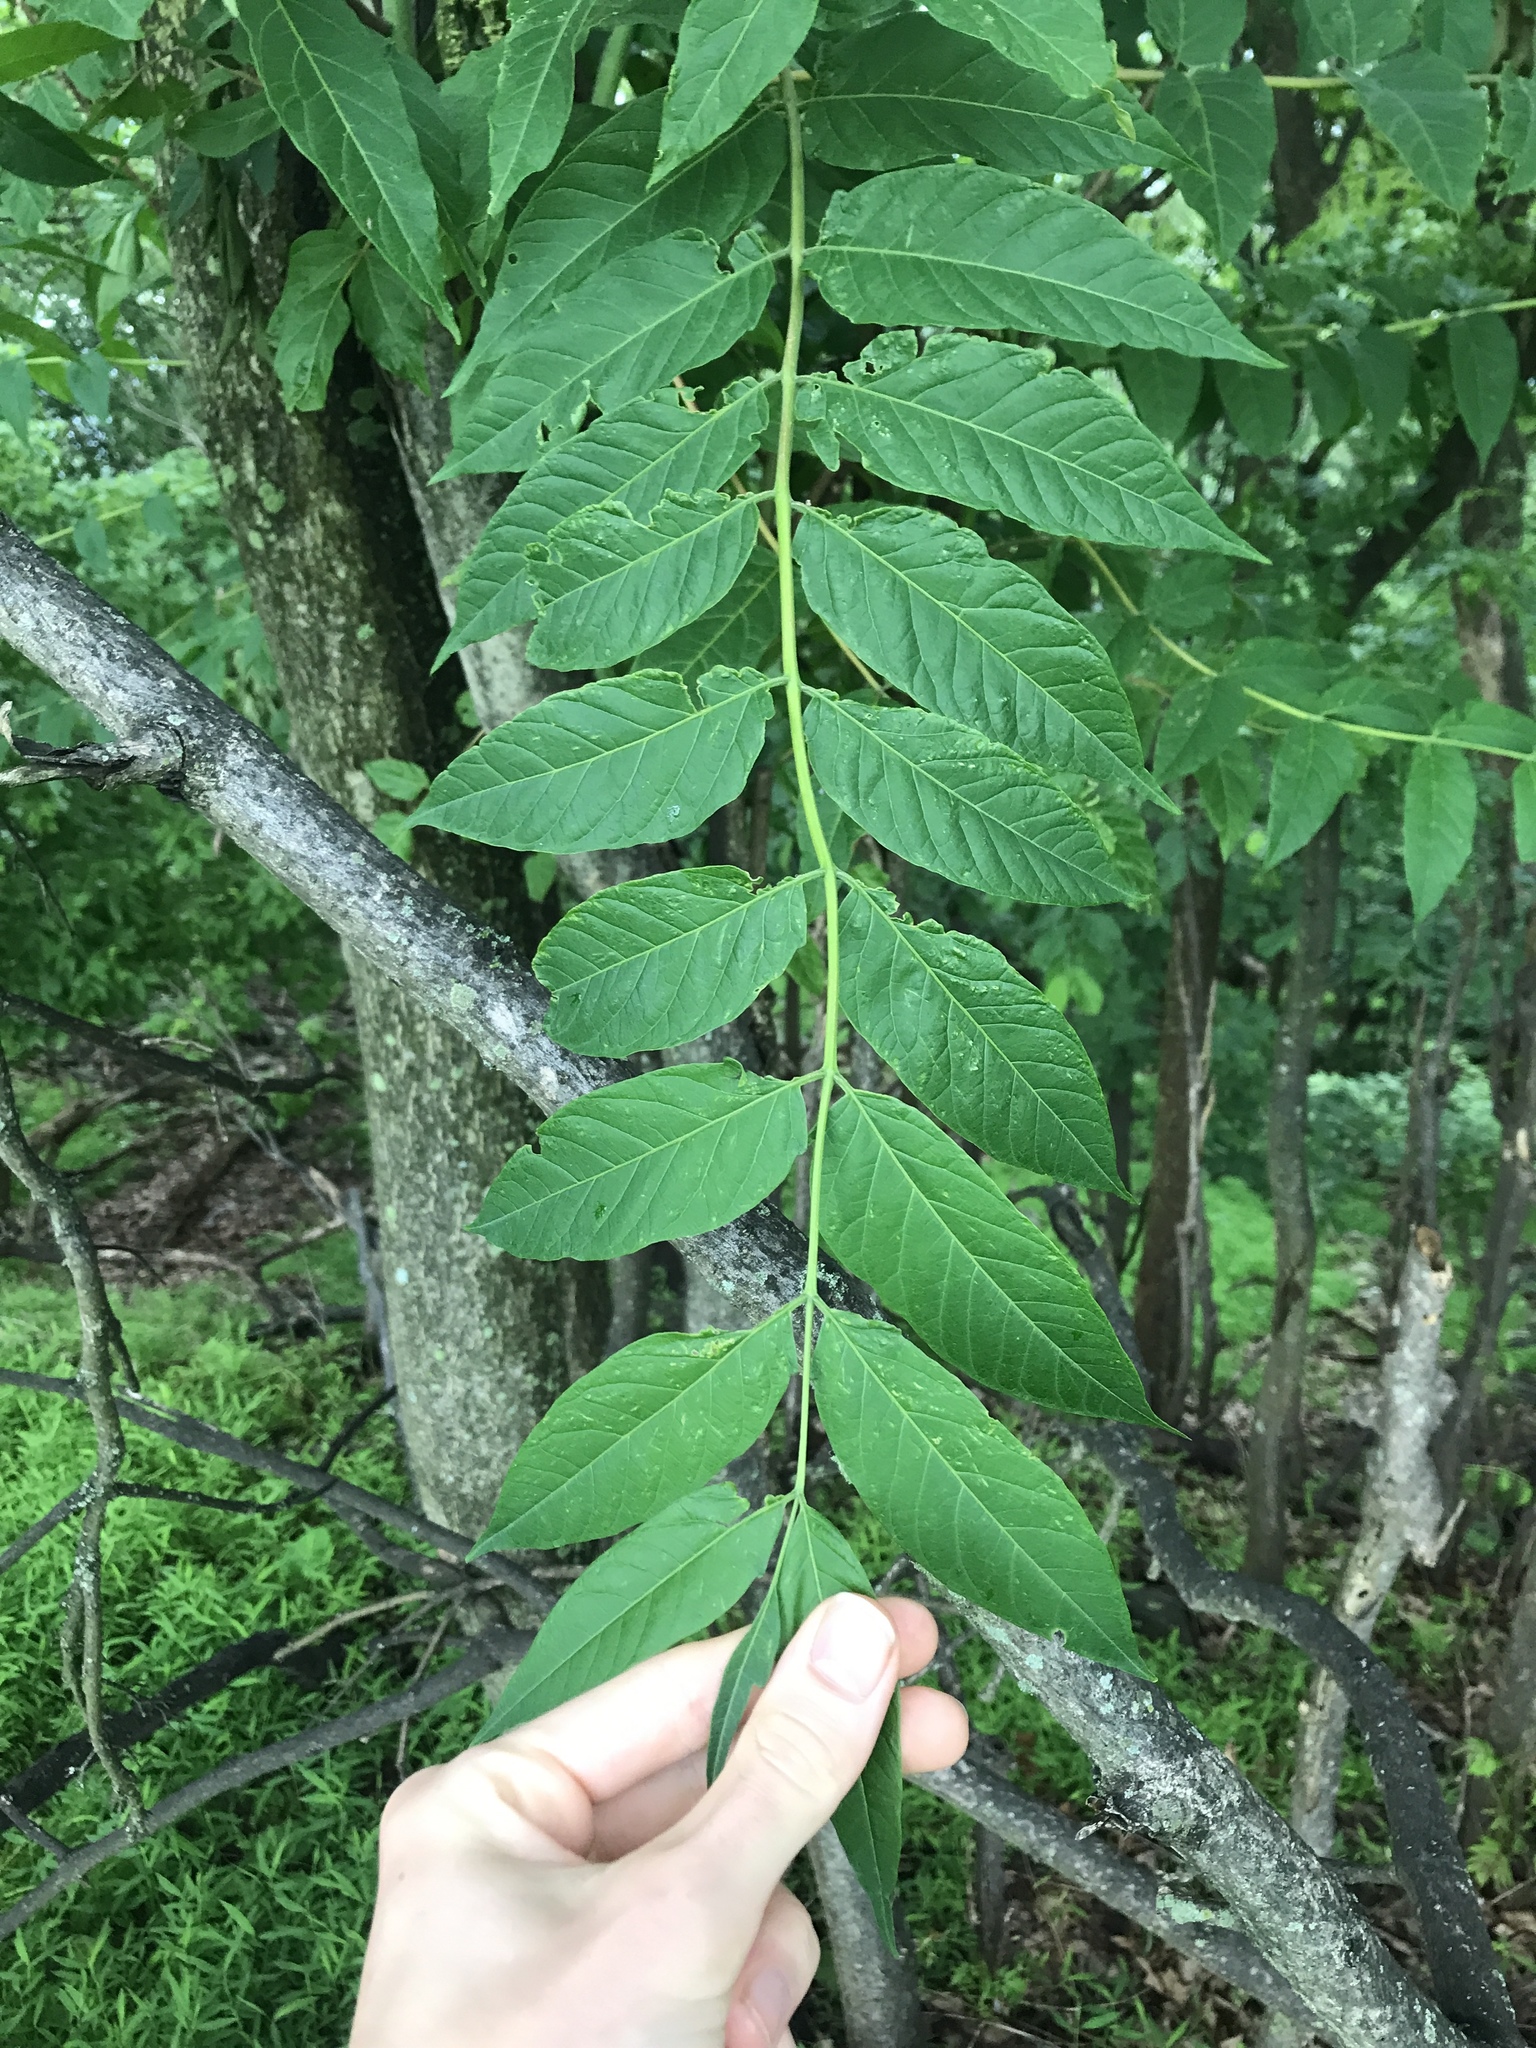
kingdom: Plantae
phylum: Tracheophyta
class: Magnoliopsida
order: Sapindales
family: Simaroubaceae
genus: Ailanthus
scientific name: Ailanthus altissima
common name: Tree-of-heaven
